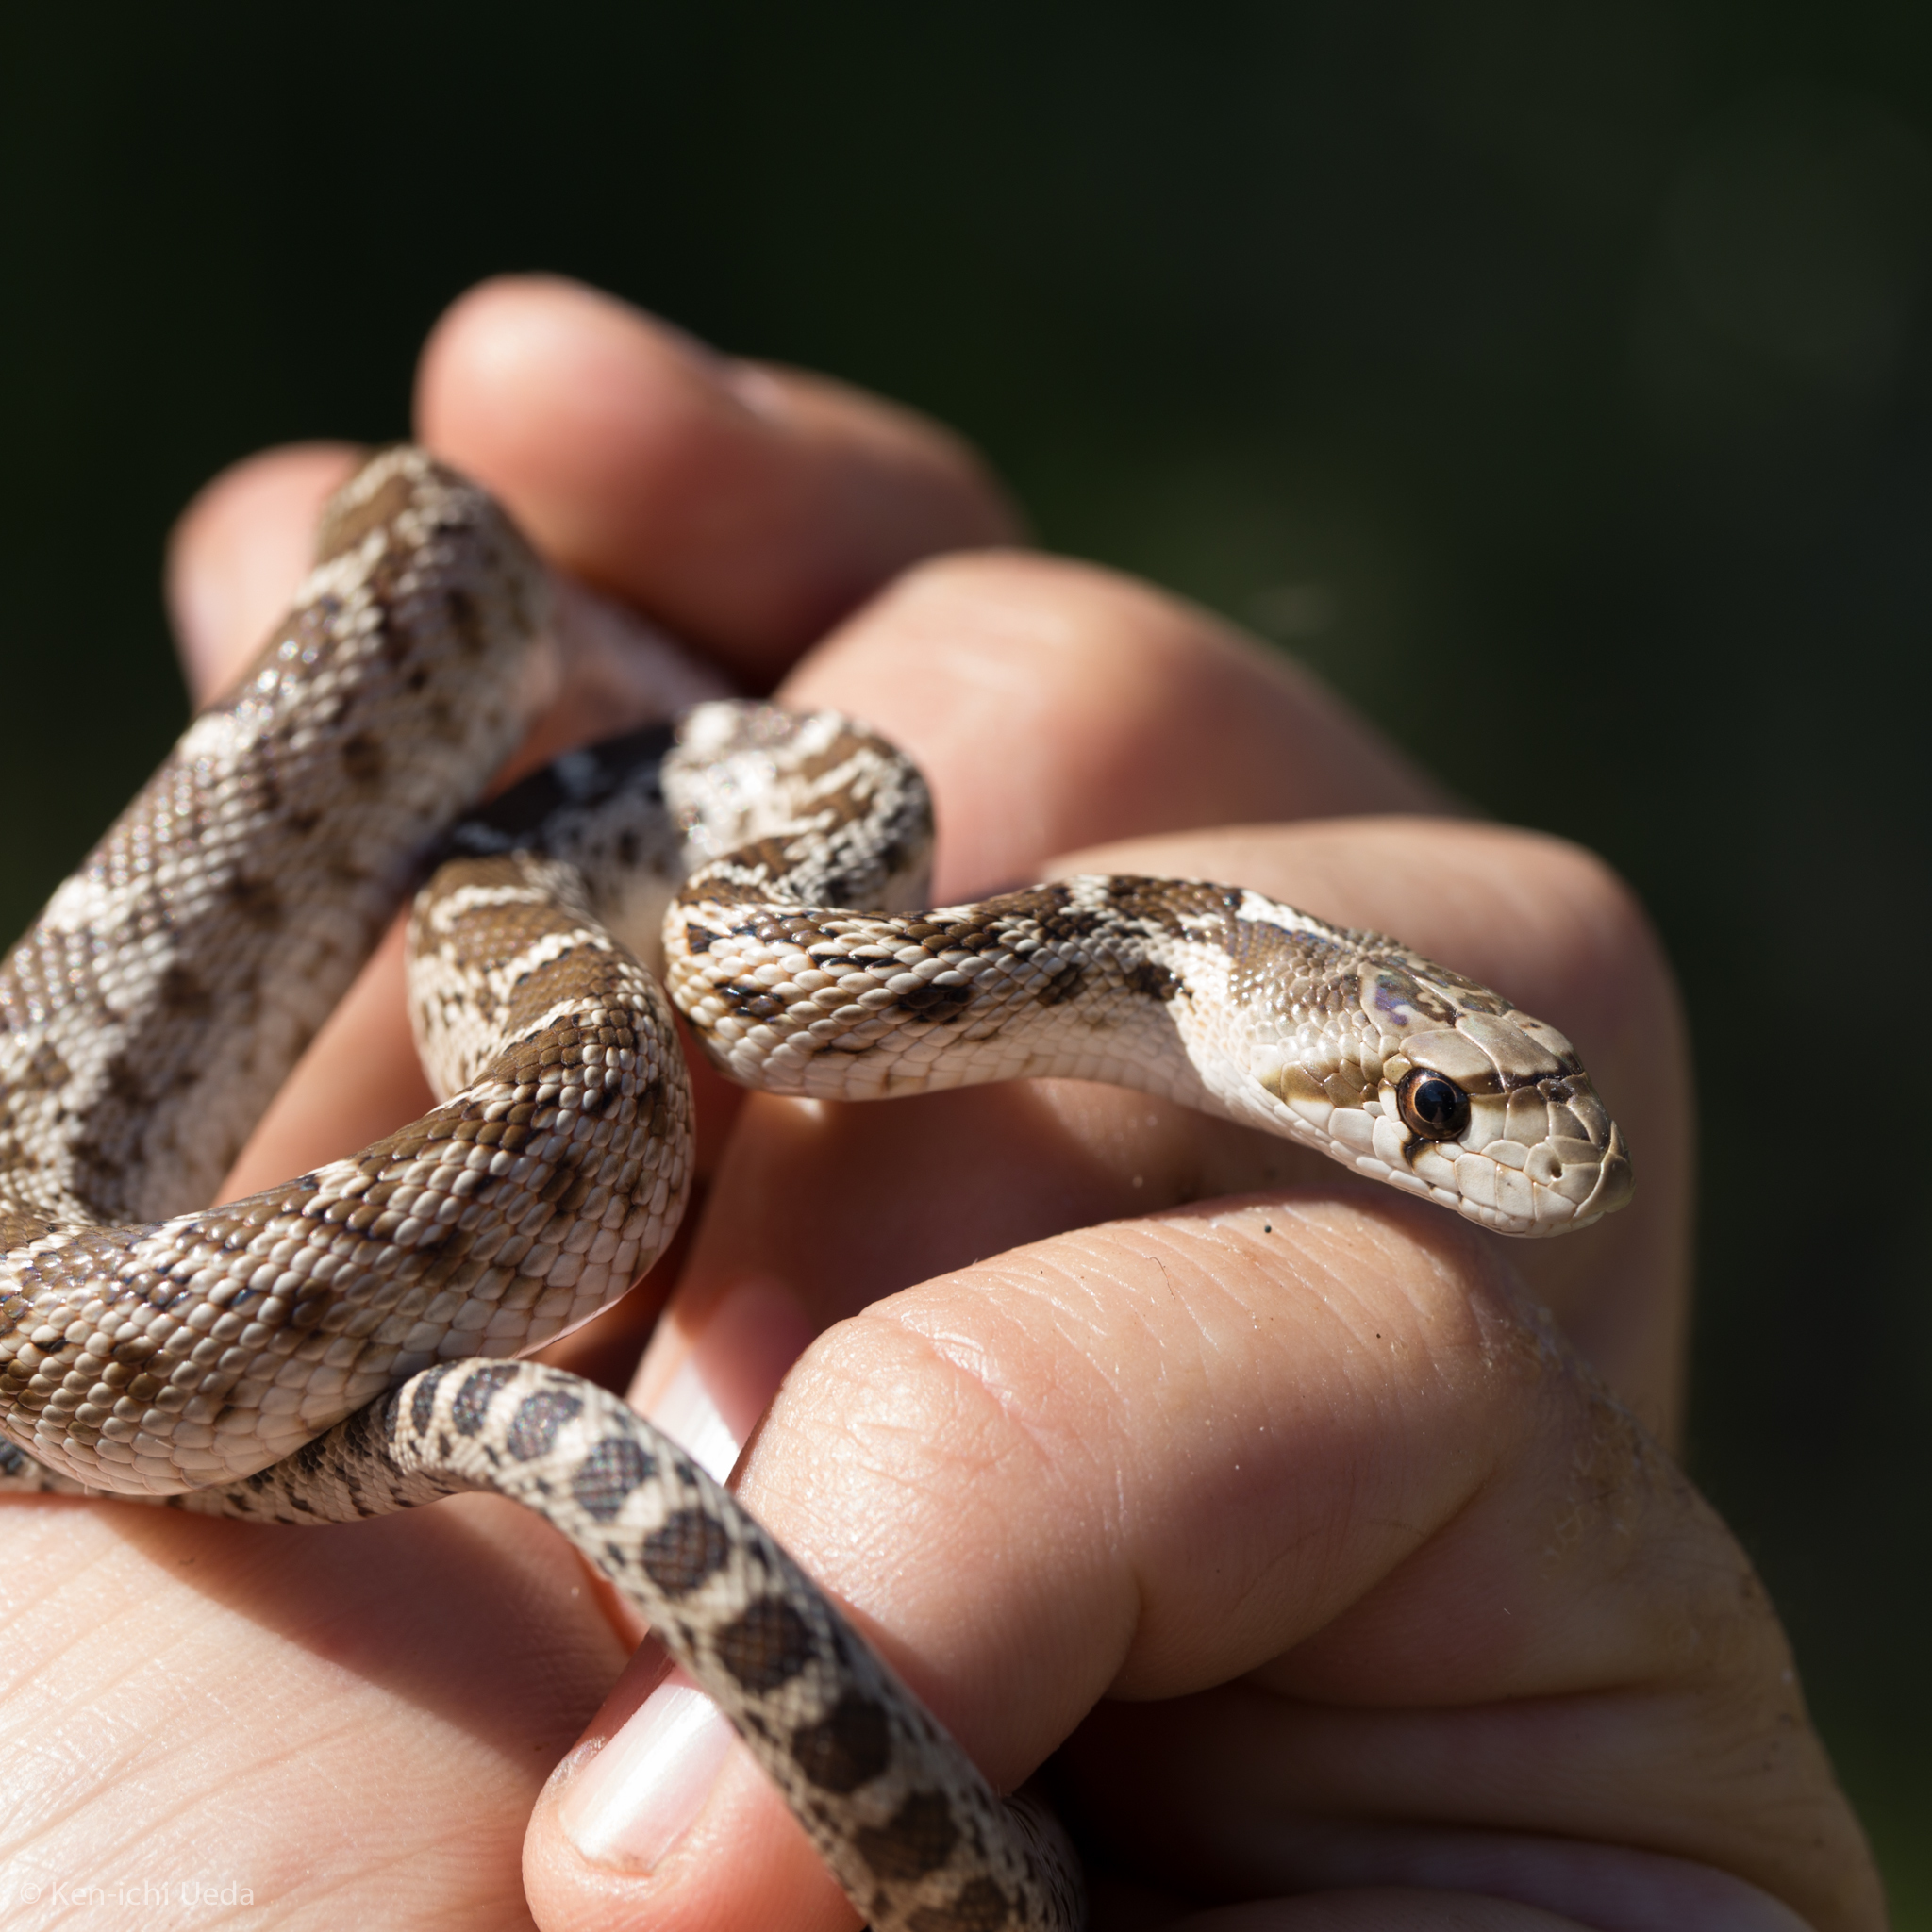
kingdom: Animalia
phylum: Chordata
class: Squamata
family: Colubridae
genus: Pituophis
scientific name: Pituophis catenifer
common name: Gopher snake
